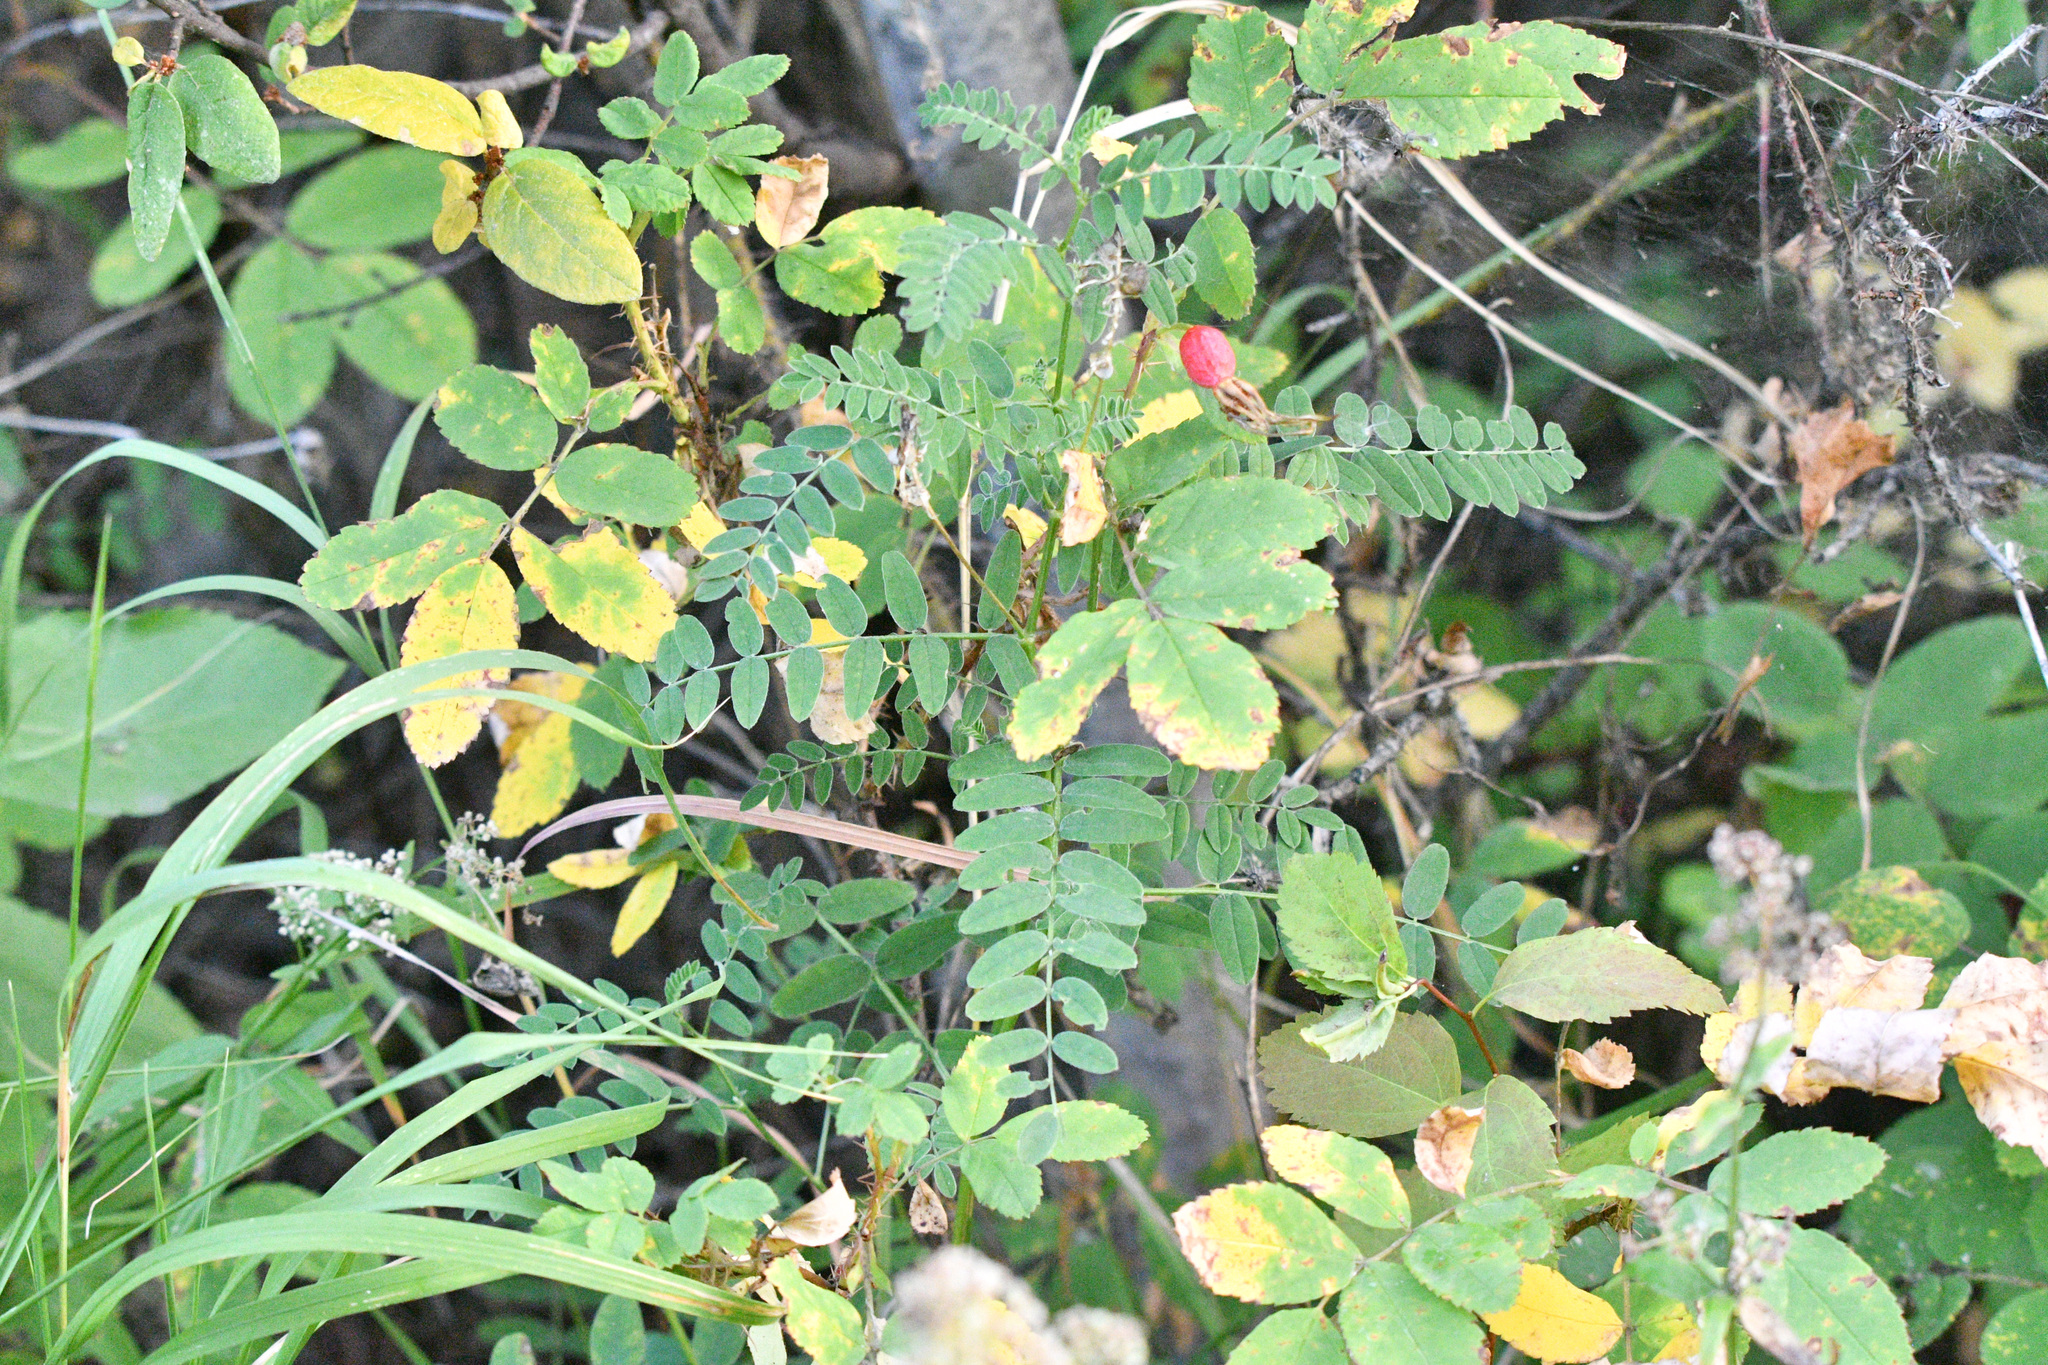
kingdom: Plantae
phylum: Tracheophyta
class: Magnoliopsida
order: Fabales
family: Fabaceae
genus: Astragalus
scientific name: Astragalus cicer
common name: Chick-pea milk-vetch
